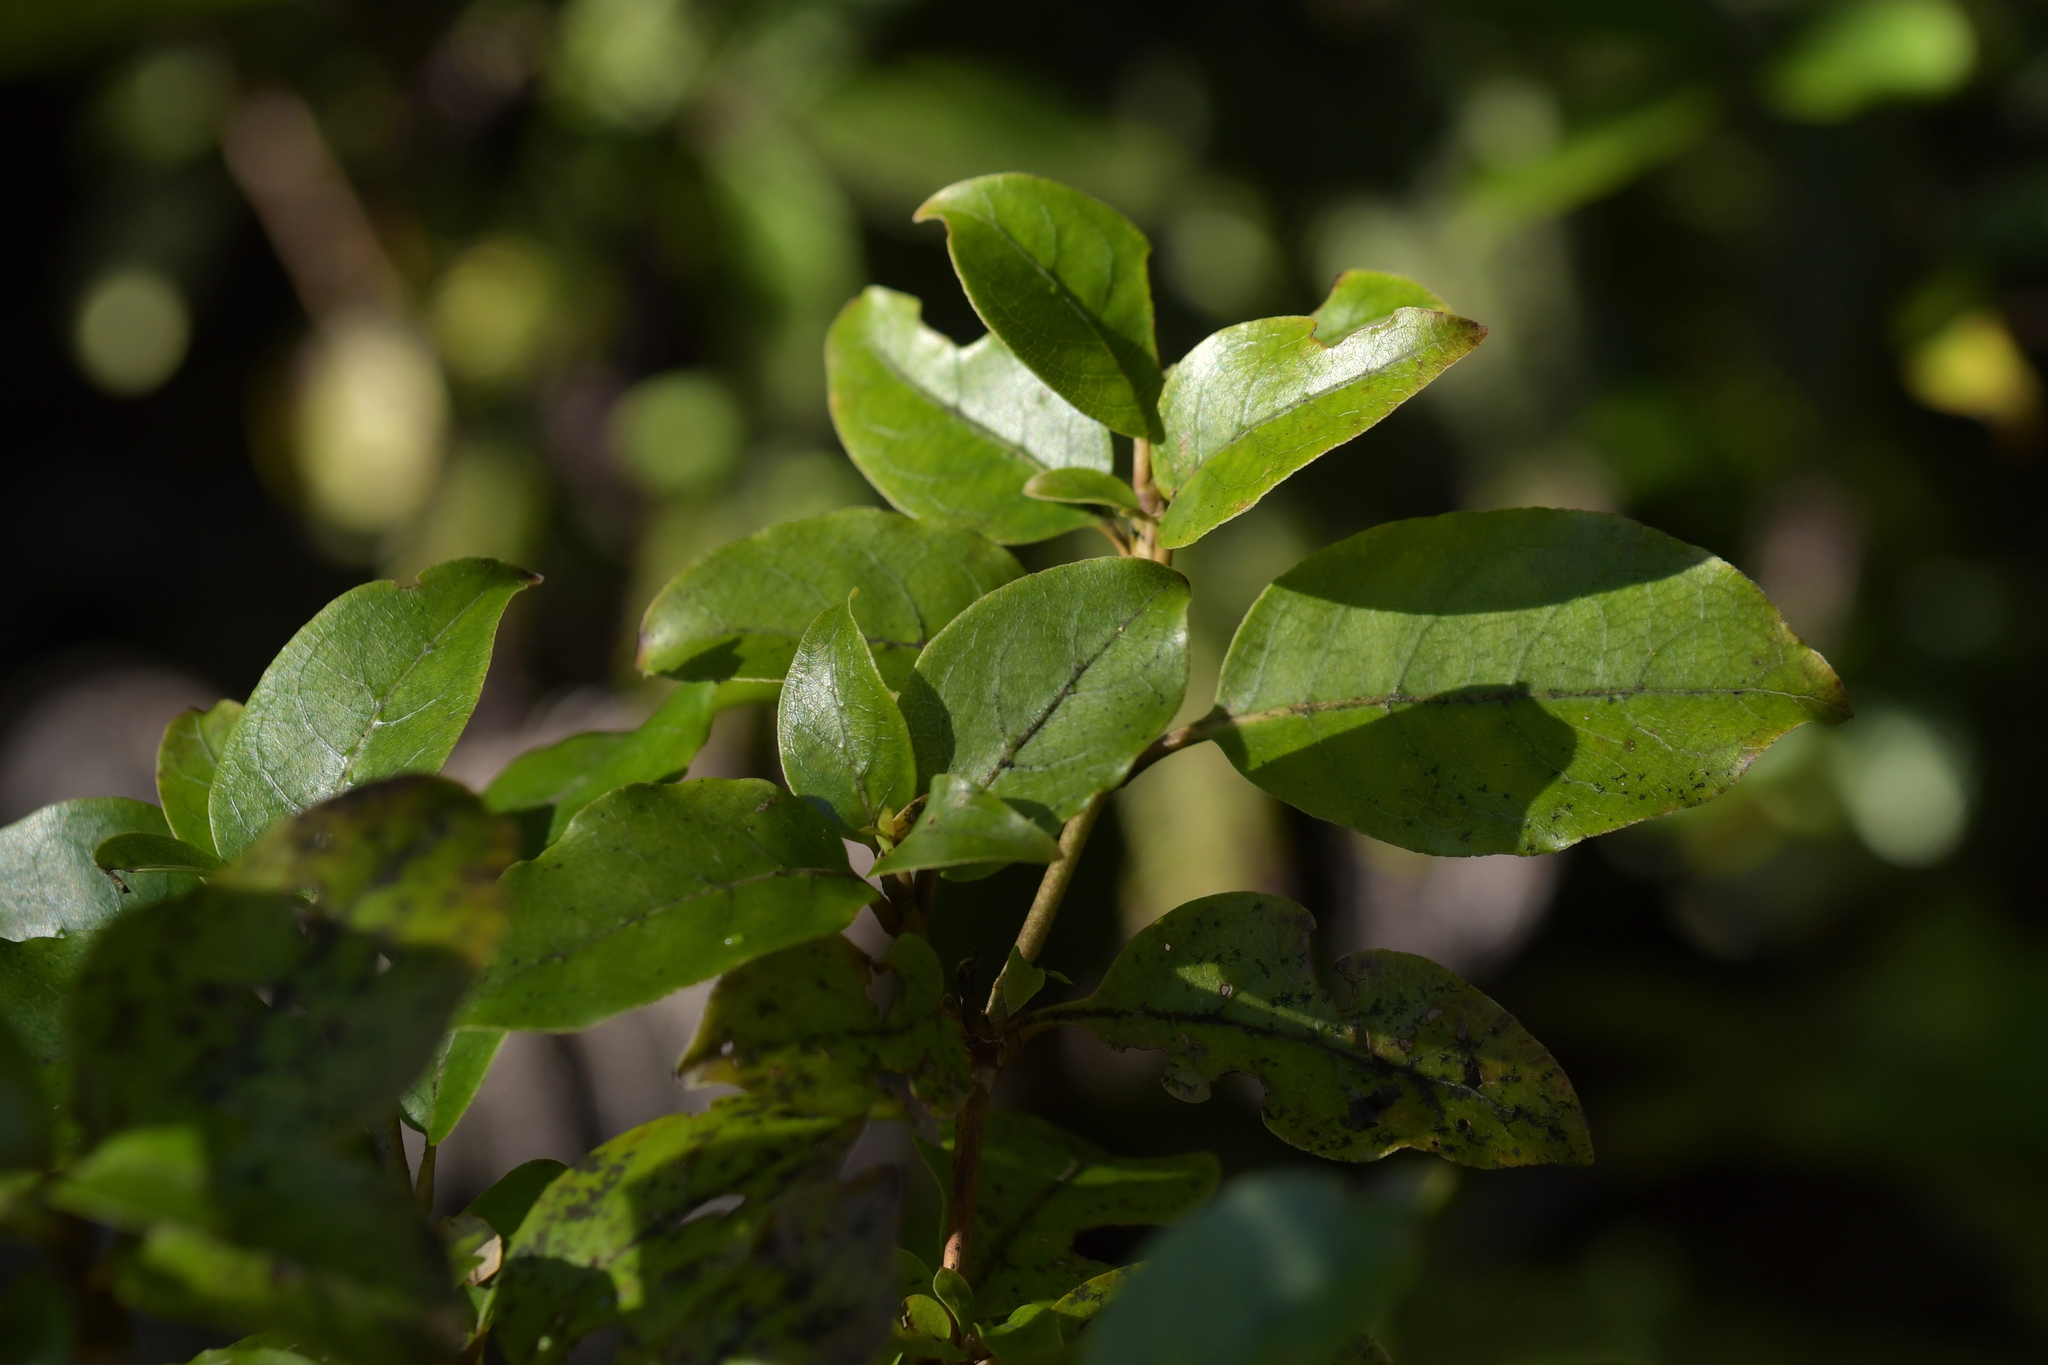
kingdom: Plantae
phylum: Tracheophyta
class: Magnoliopsida
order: Gentianales
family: Rubiaceae
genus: Coprosma
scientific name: Coprosma tenuifolia
